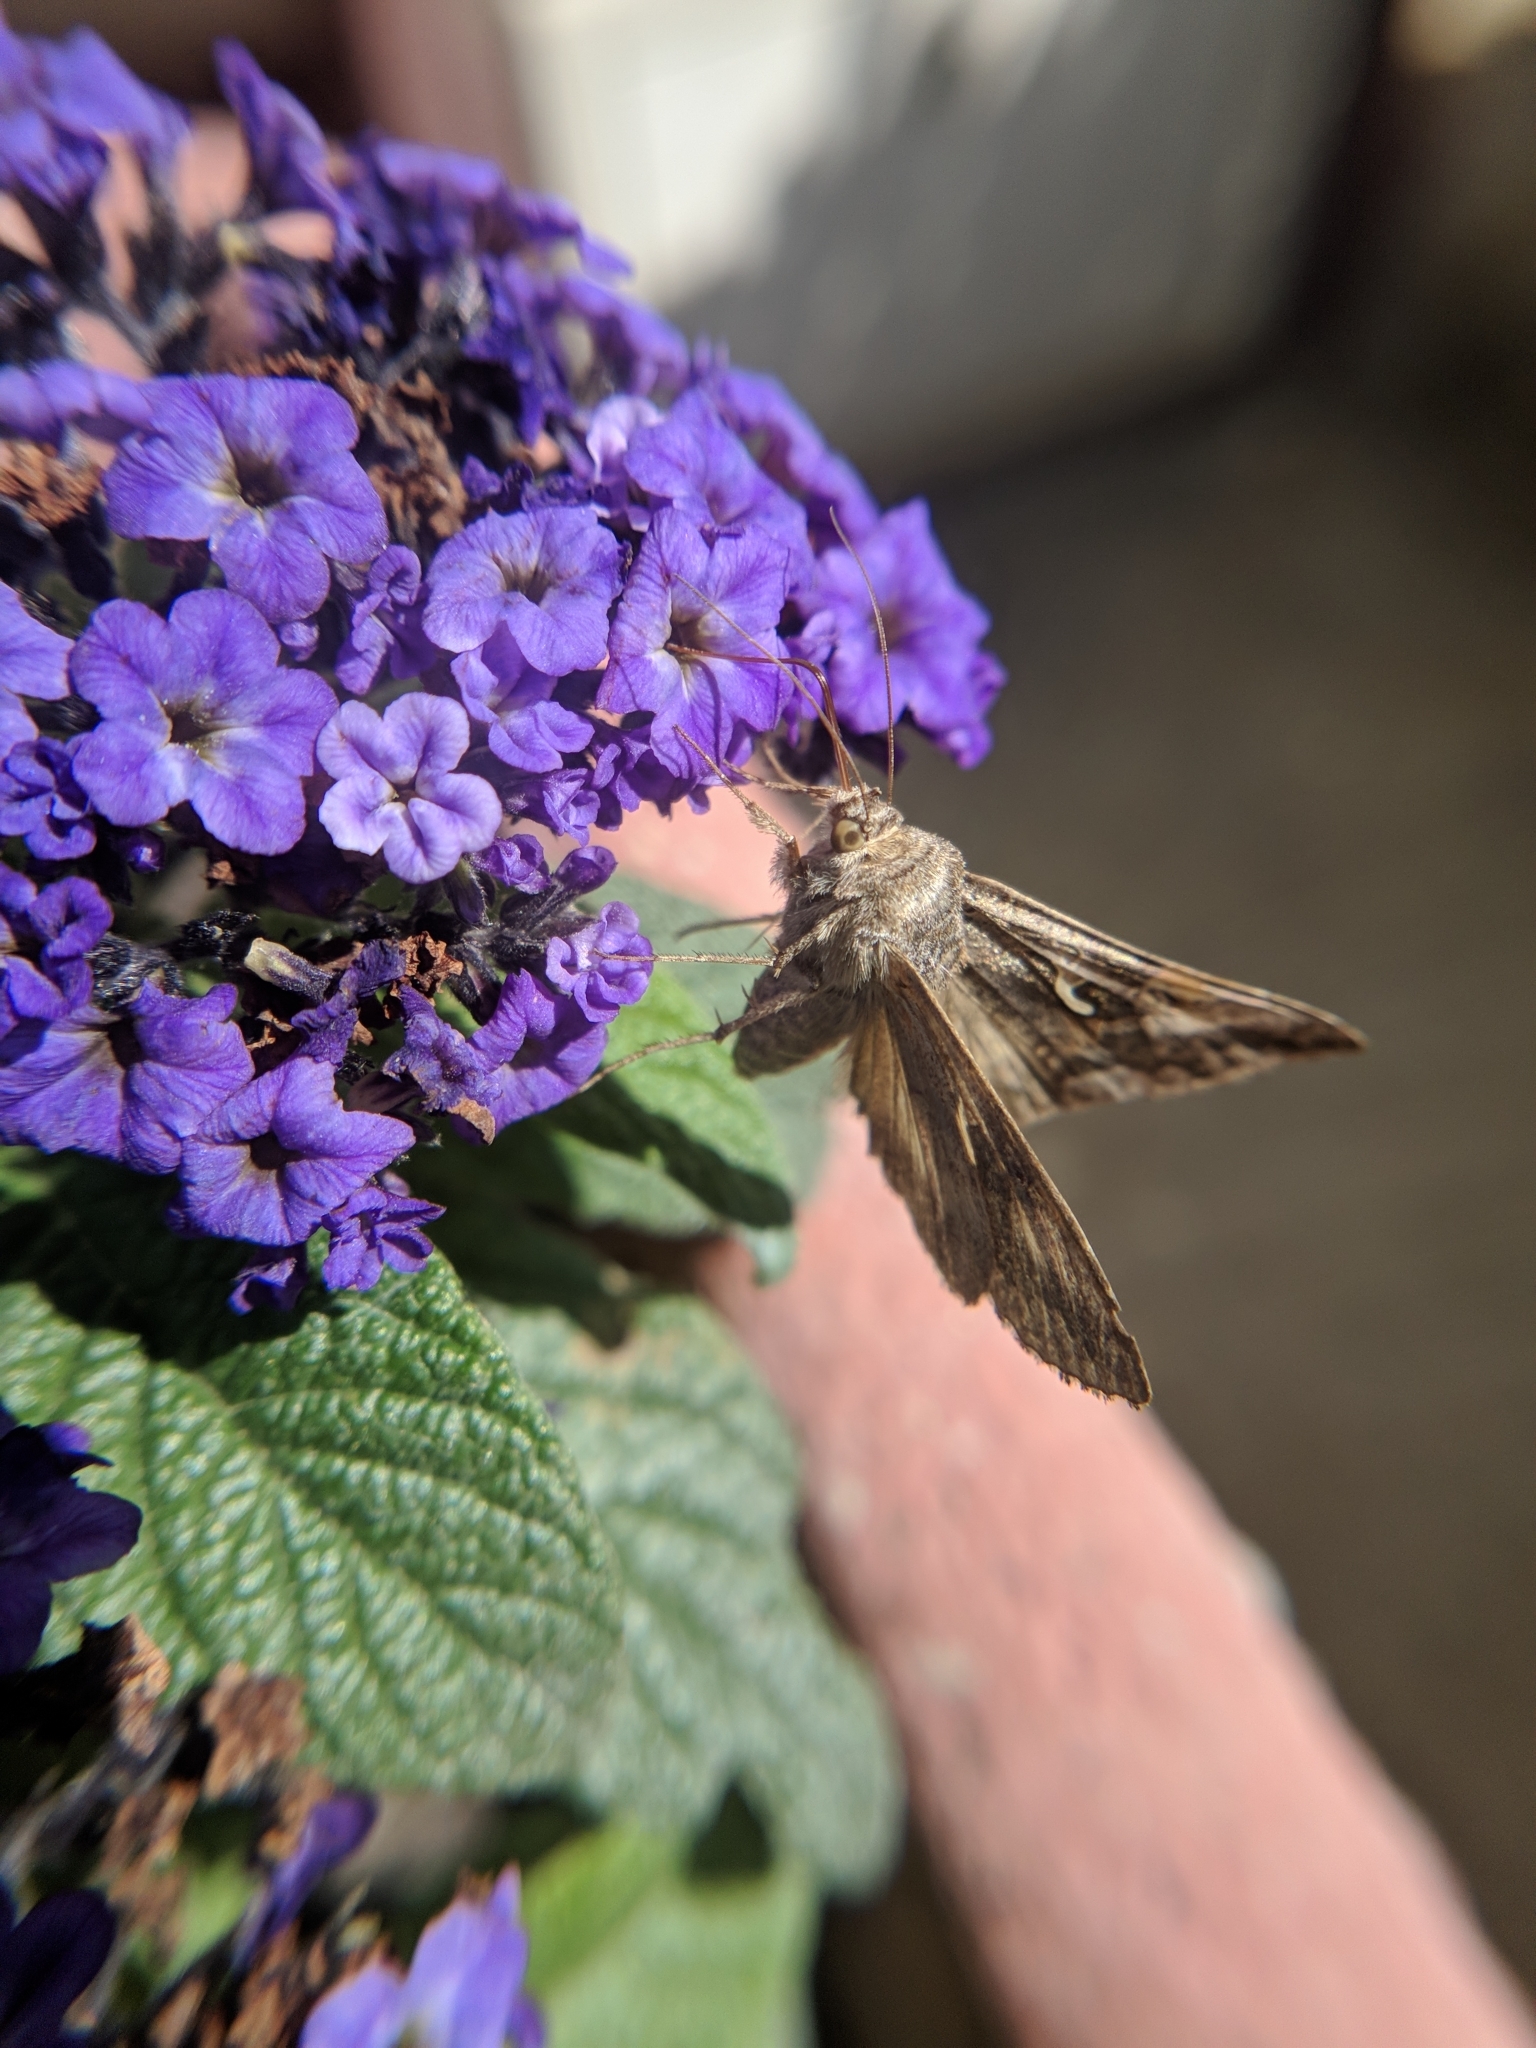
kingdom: Animalia
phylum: Arthropoda
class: Insecta
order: Lepidoptera
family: Noctuidae
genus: Autographa
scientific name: Autographa gamma
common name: Silver y
